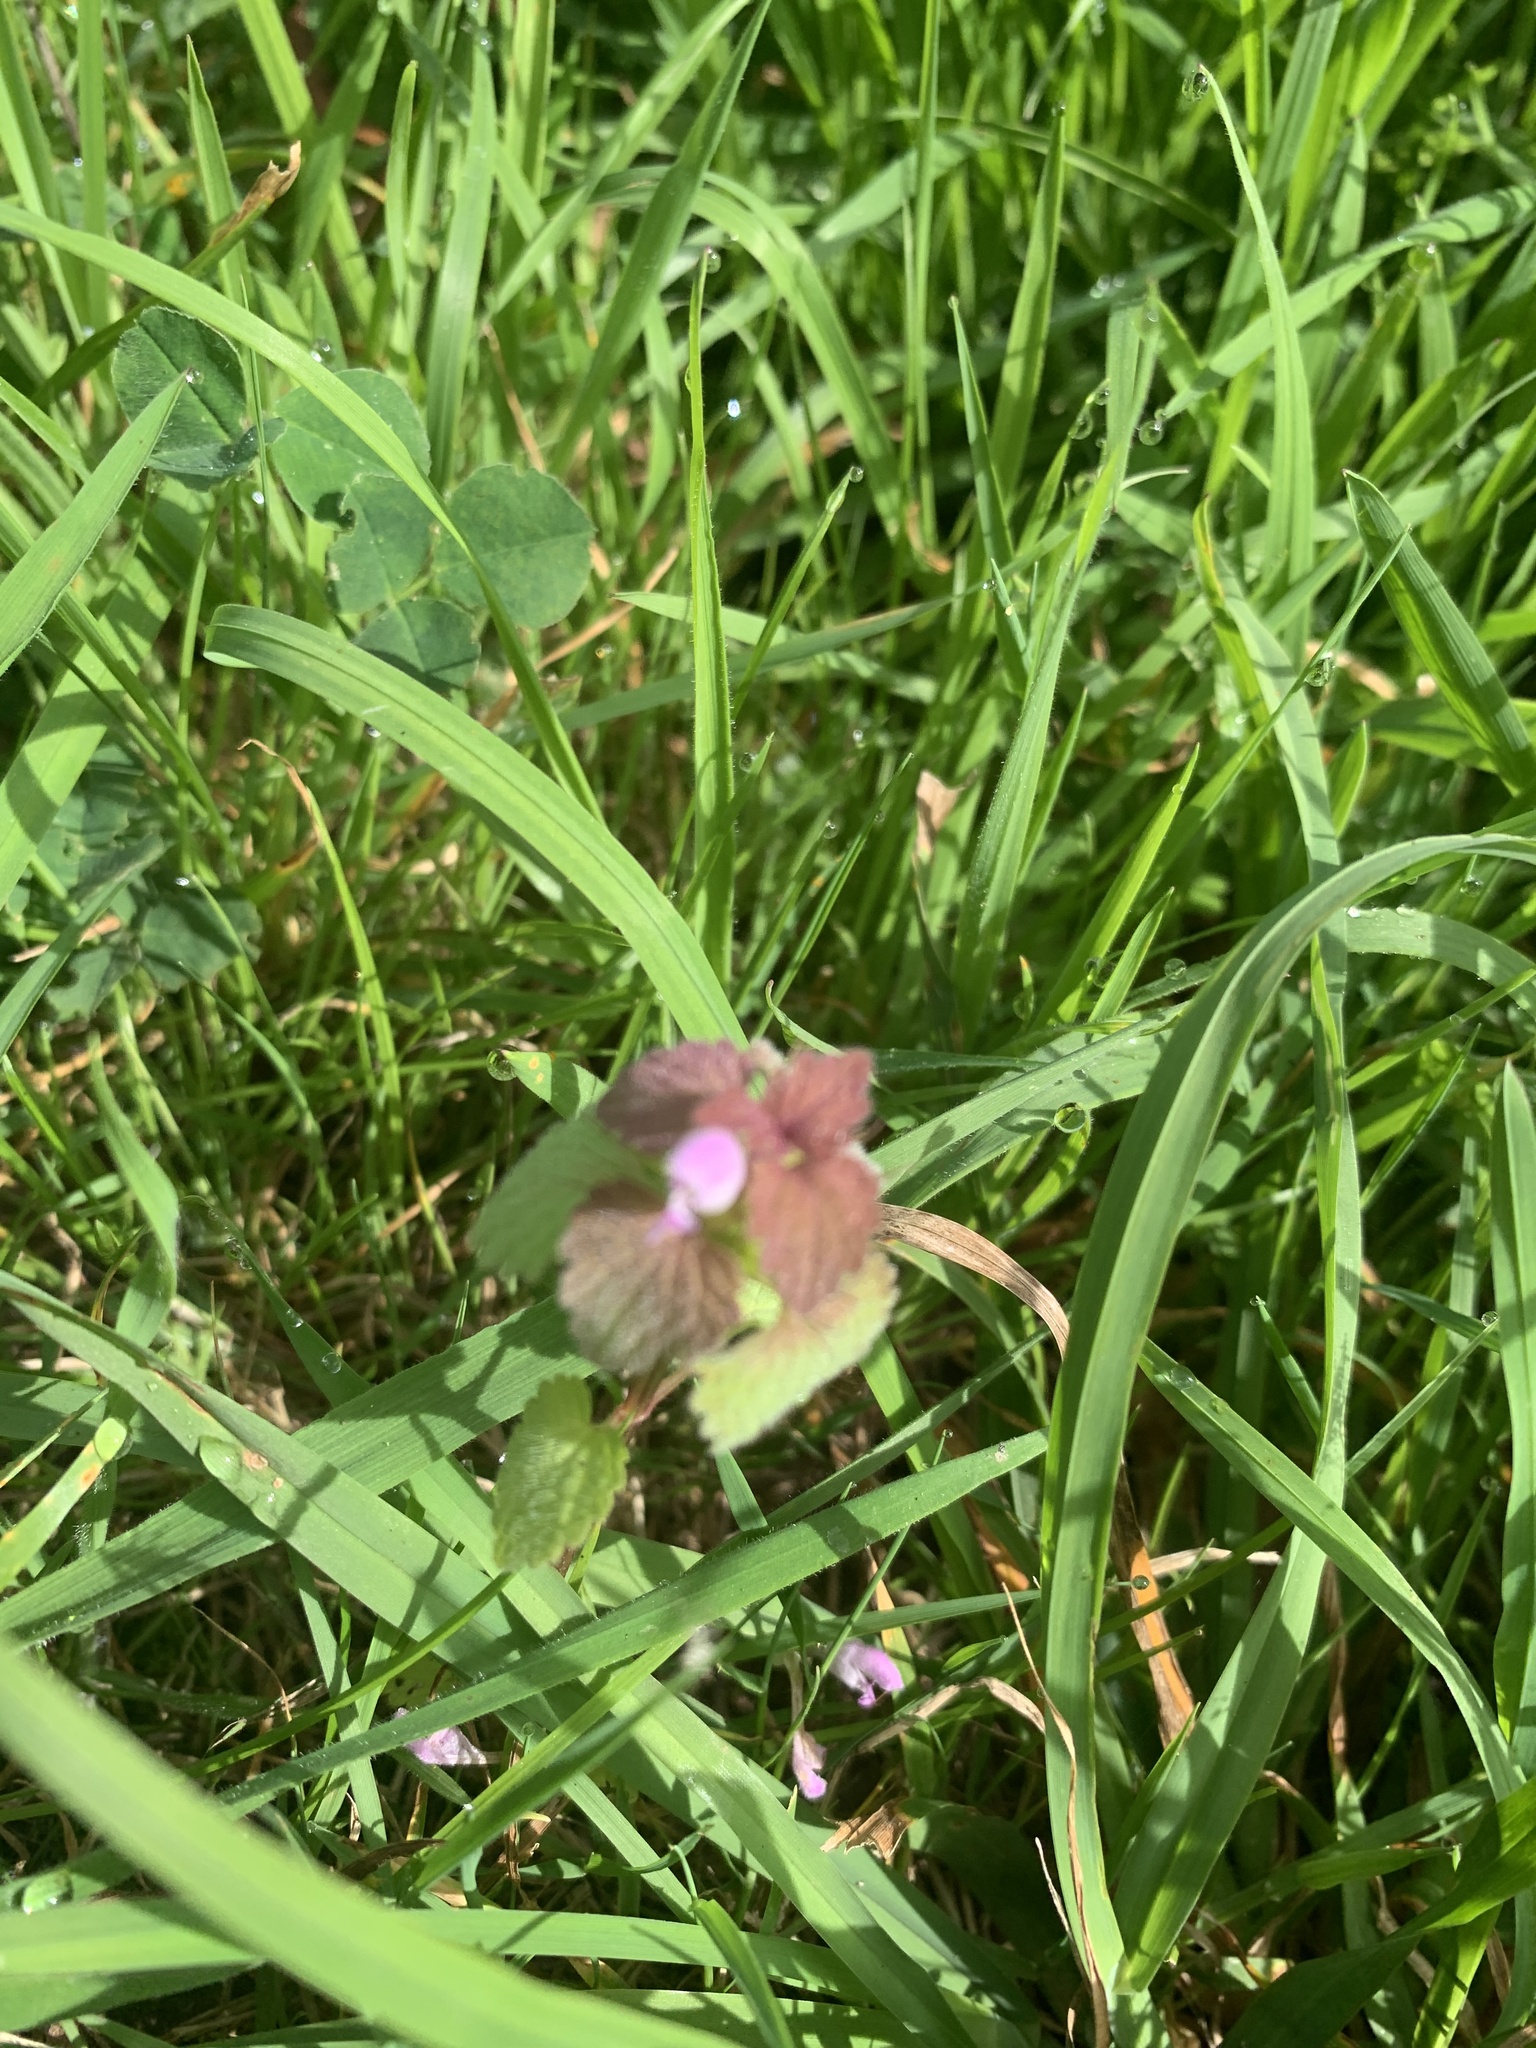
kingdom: Plantae
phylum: Tracheophyta
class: Magnoliopsida
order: Lamiales
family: Lamiaceae
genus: Lamium
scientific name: Lamium purpureum
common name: Red dead-nettle
